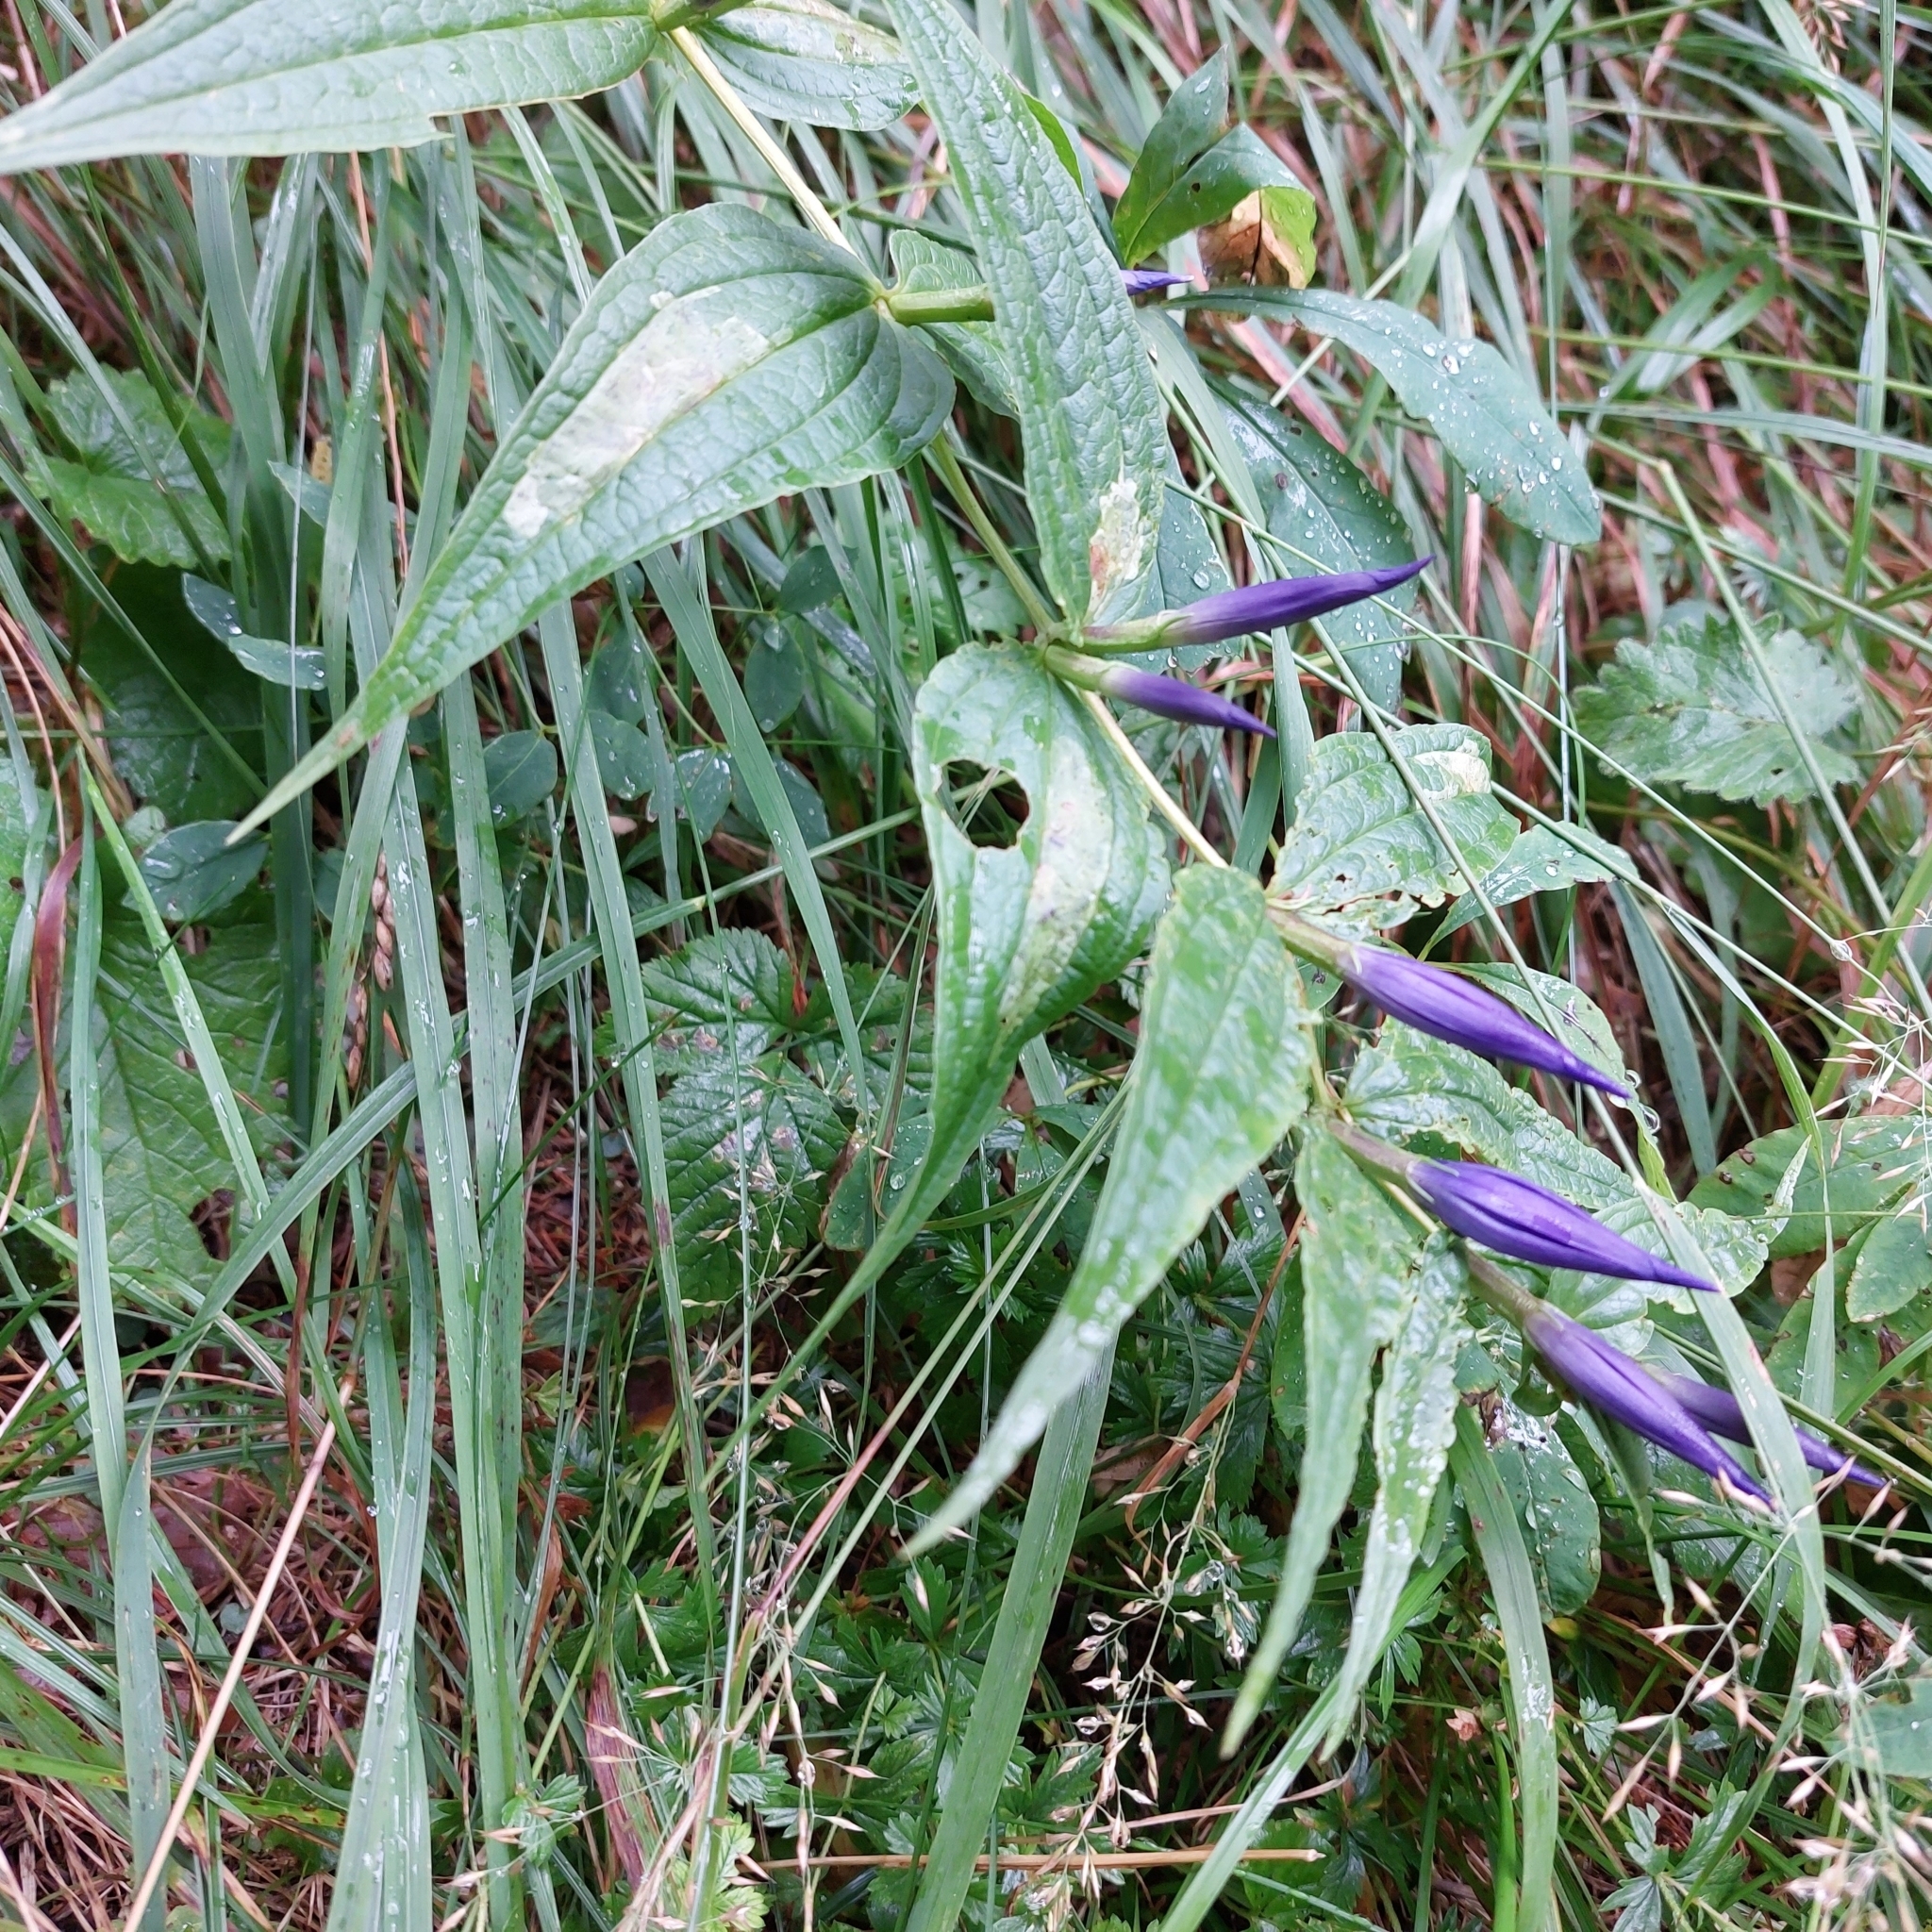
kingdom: Plantae
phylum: Tracheophyta
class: Magnoliopsida
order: Gentianales
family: Gentianaceae
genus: Gentiana
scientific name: Gentiana asclepiadea
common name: Willow gentian
